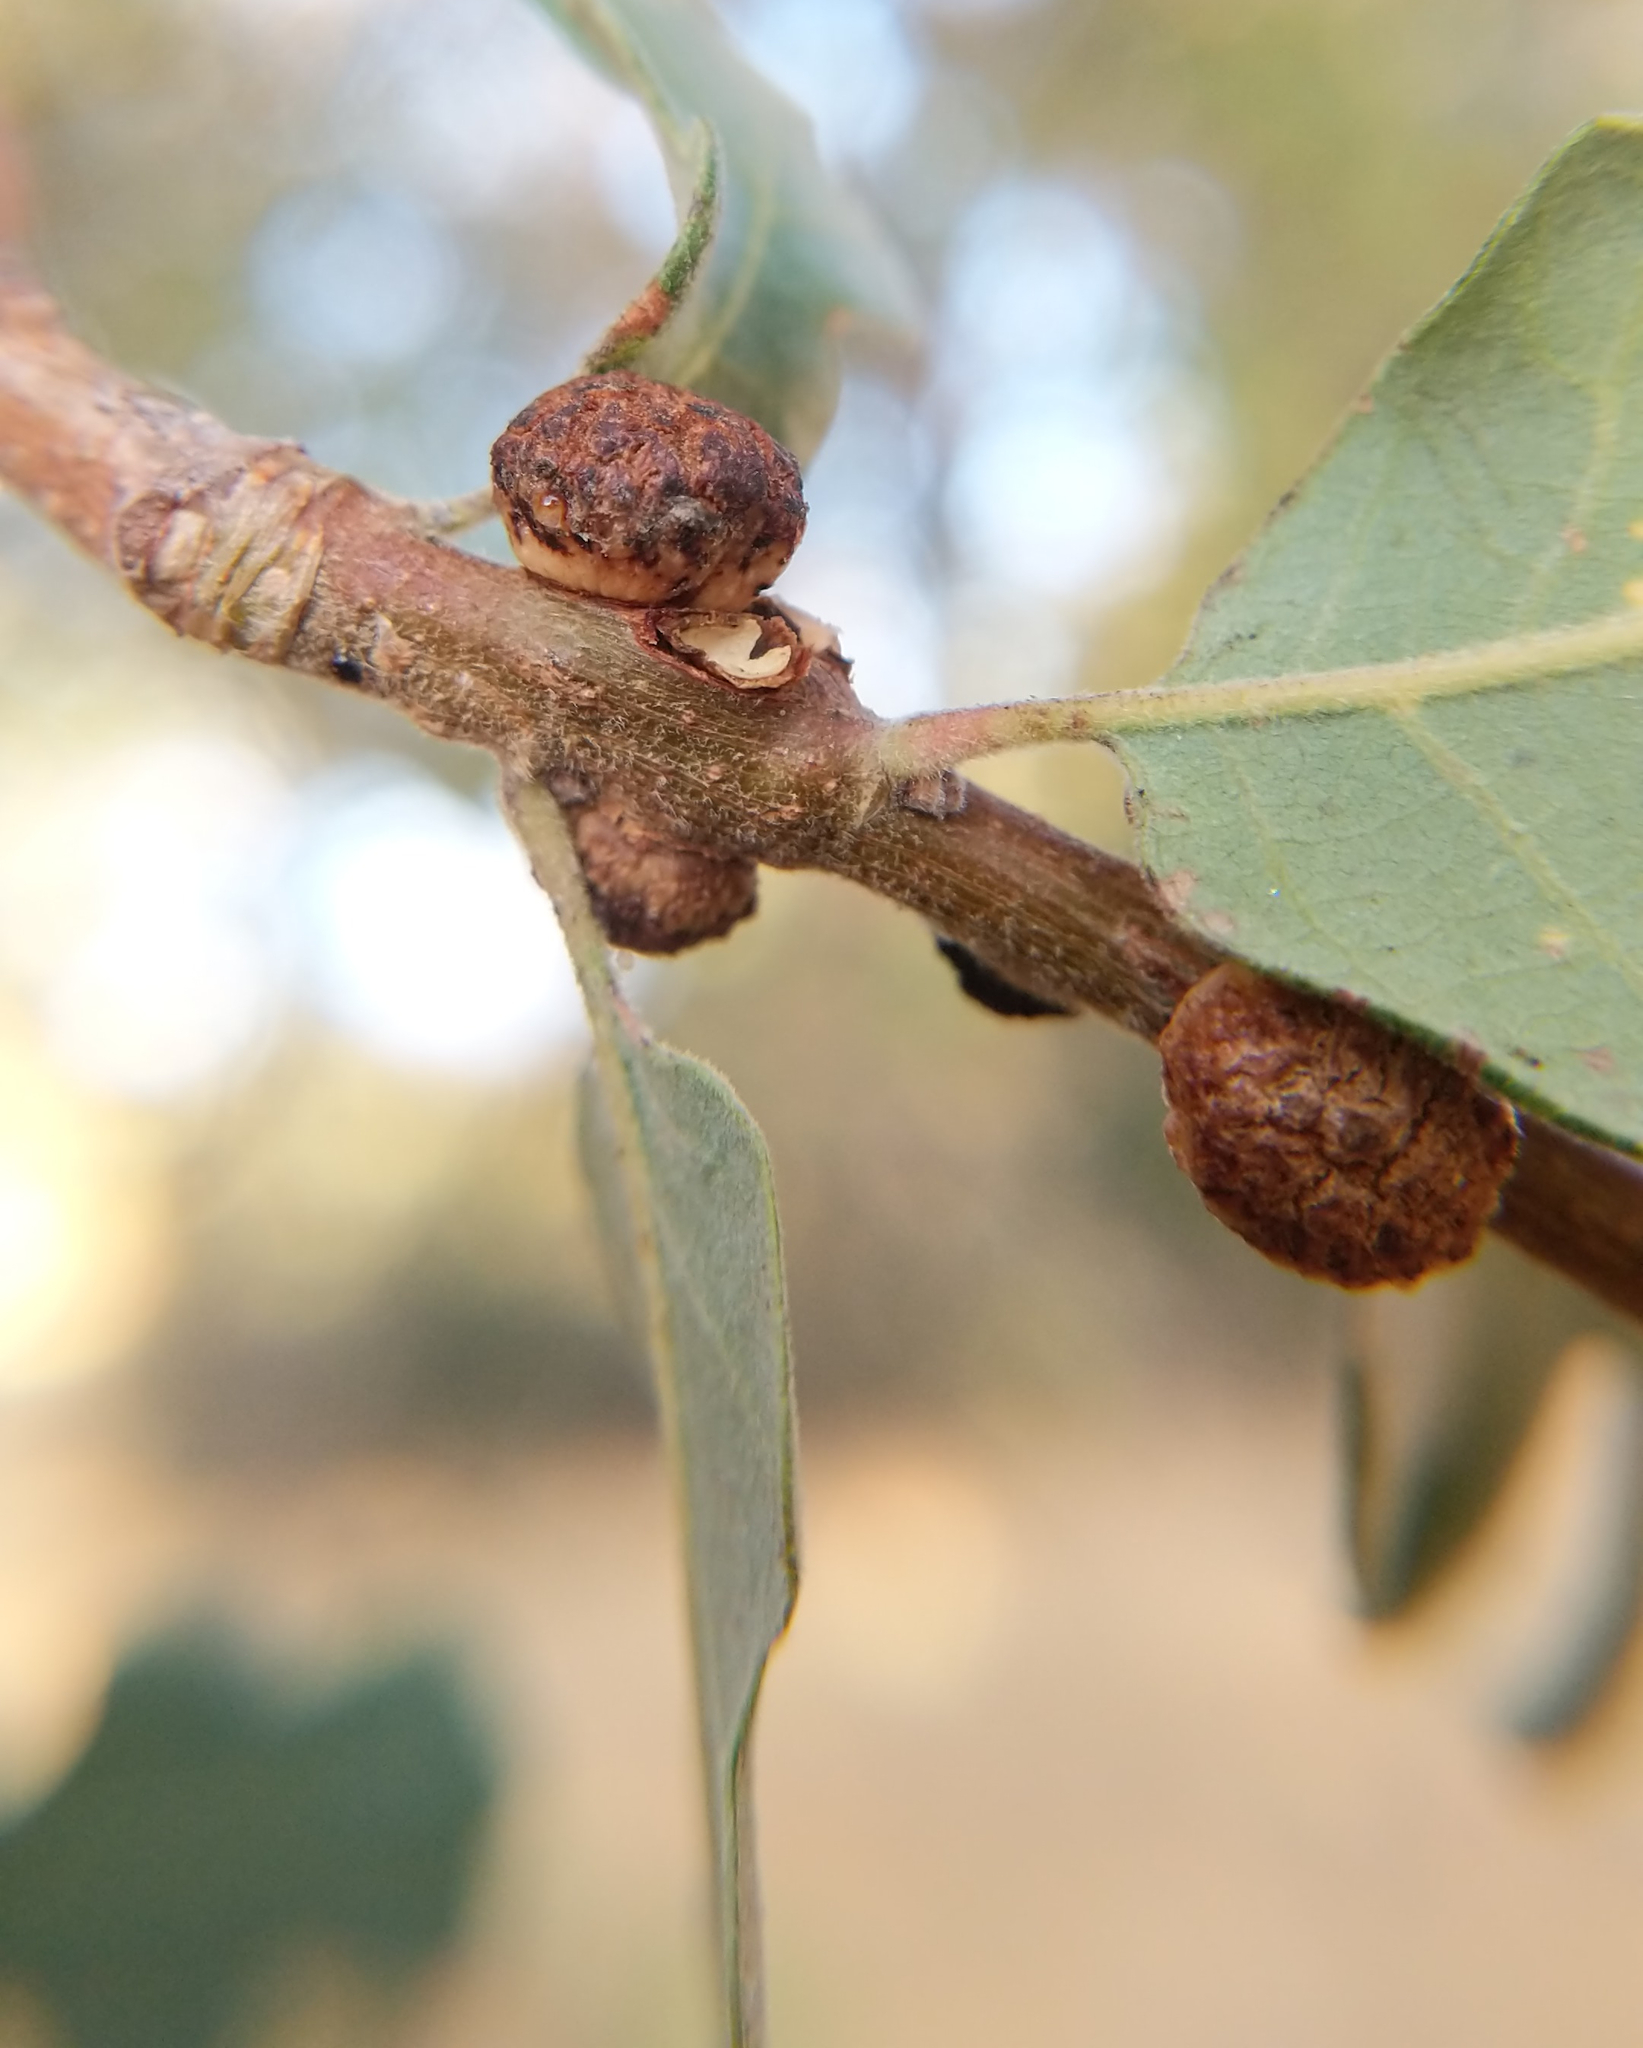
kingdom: Animalia
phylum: Arthropoda
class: Insecta
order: Hymenoptera
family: Cynipidae
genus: Disholcaspis
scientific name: Disholcaspis
